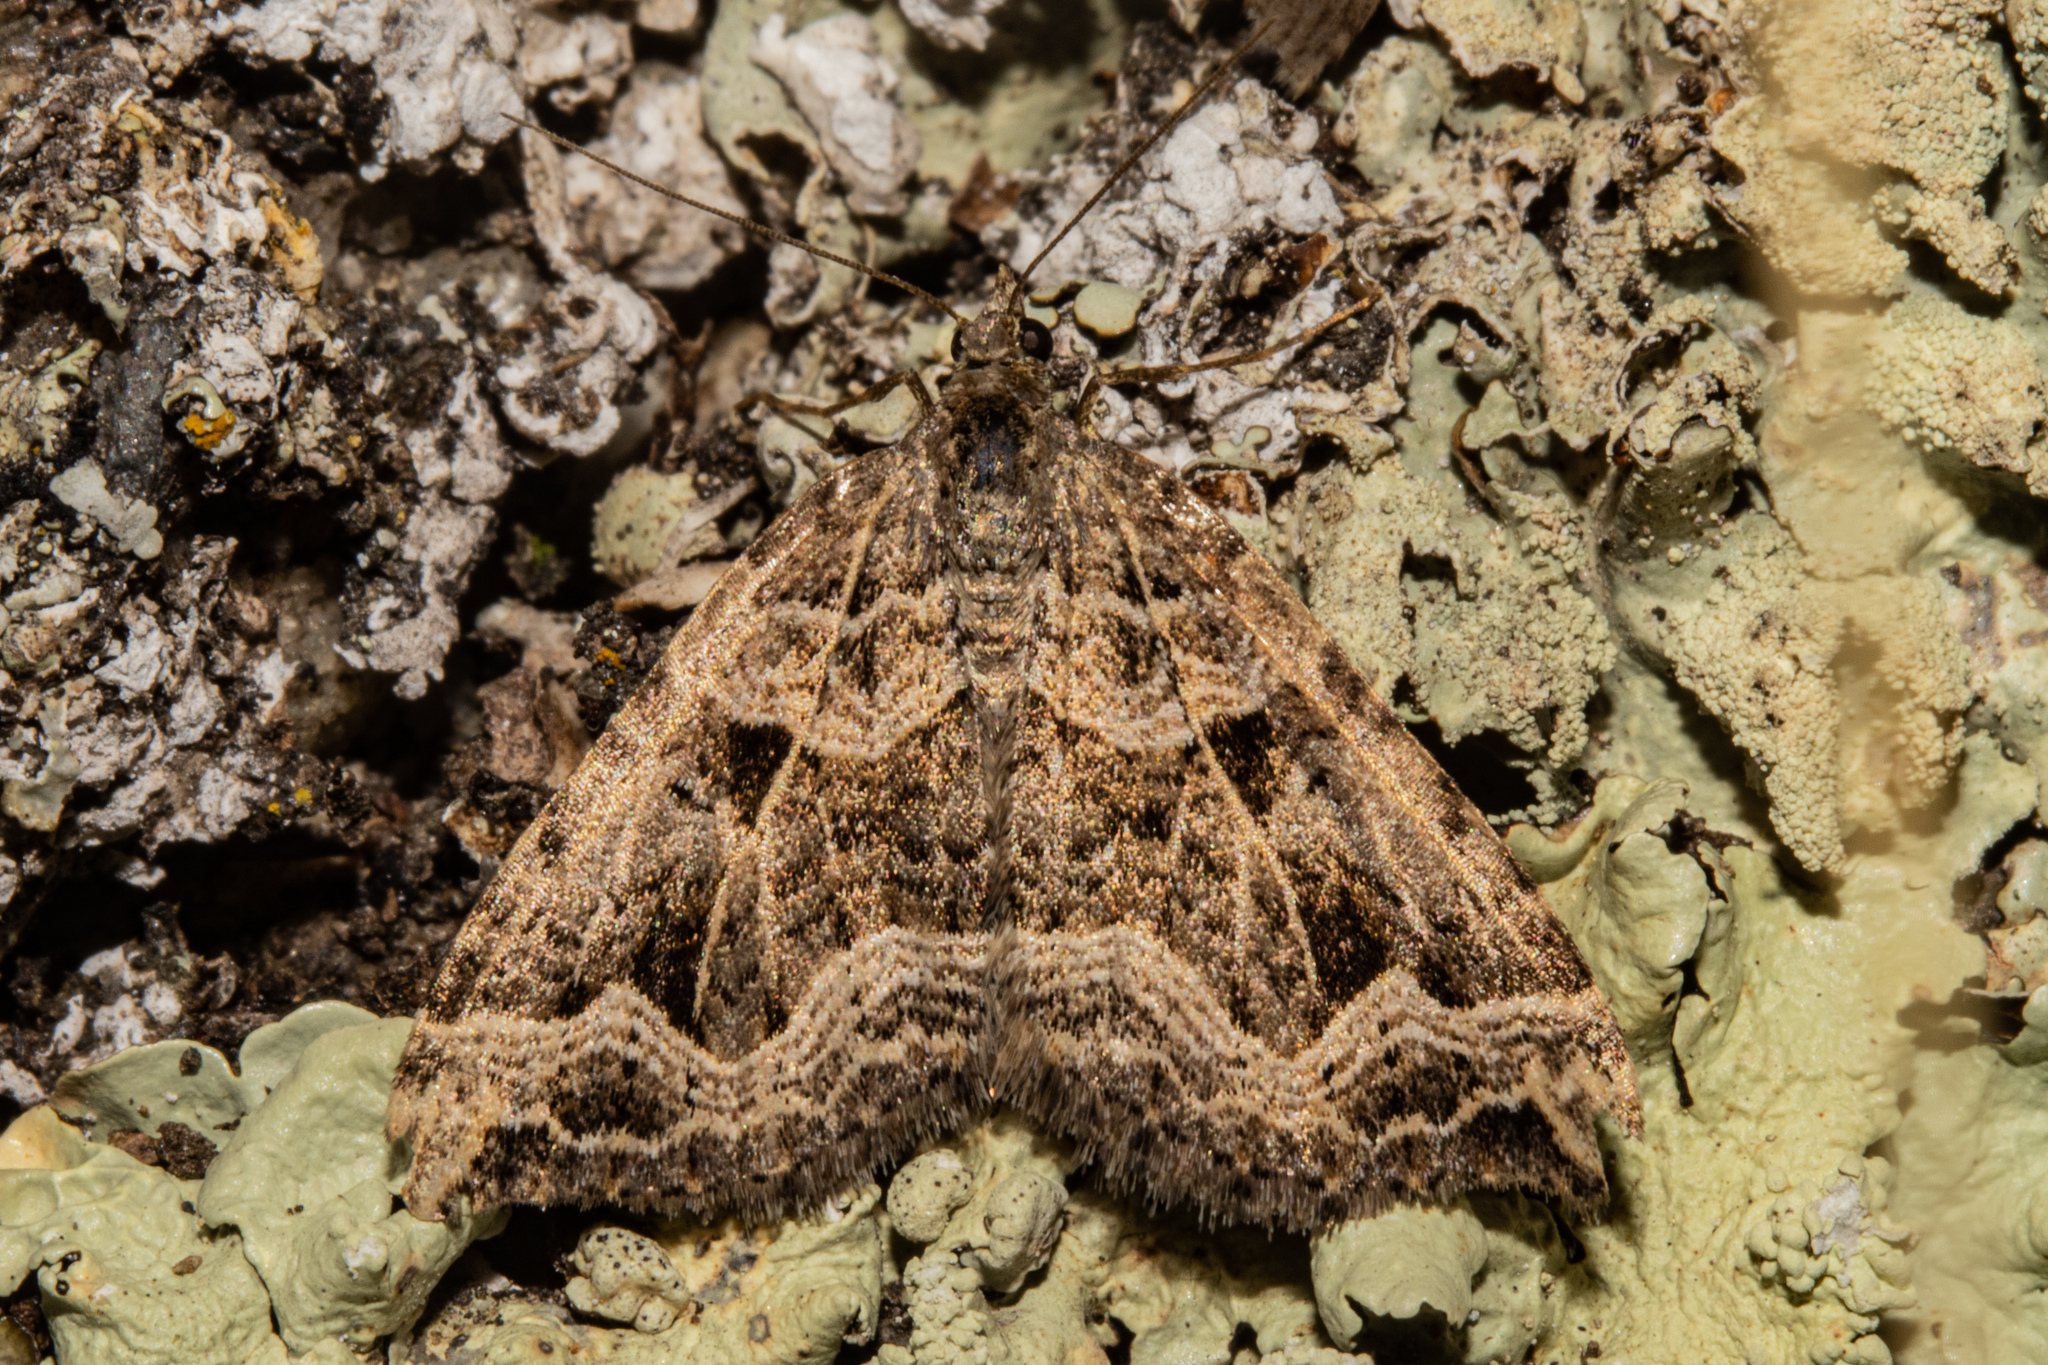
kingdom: Animalia
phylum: Arthropoda
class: Insecta
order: Lepidoptera
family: Geometridae
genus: Xanthorhoe
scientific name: Xanthorhoe semifissata
